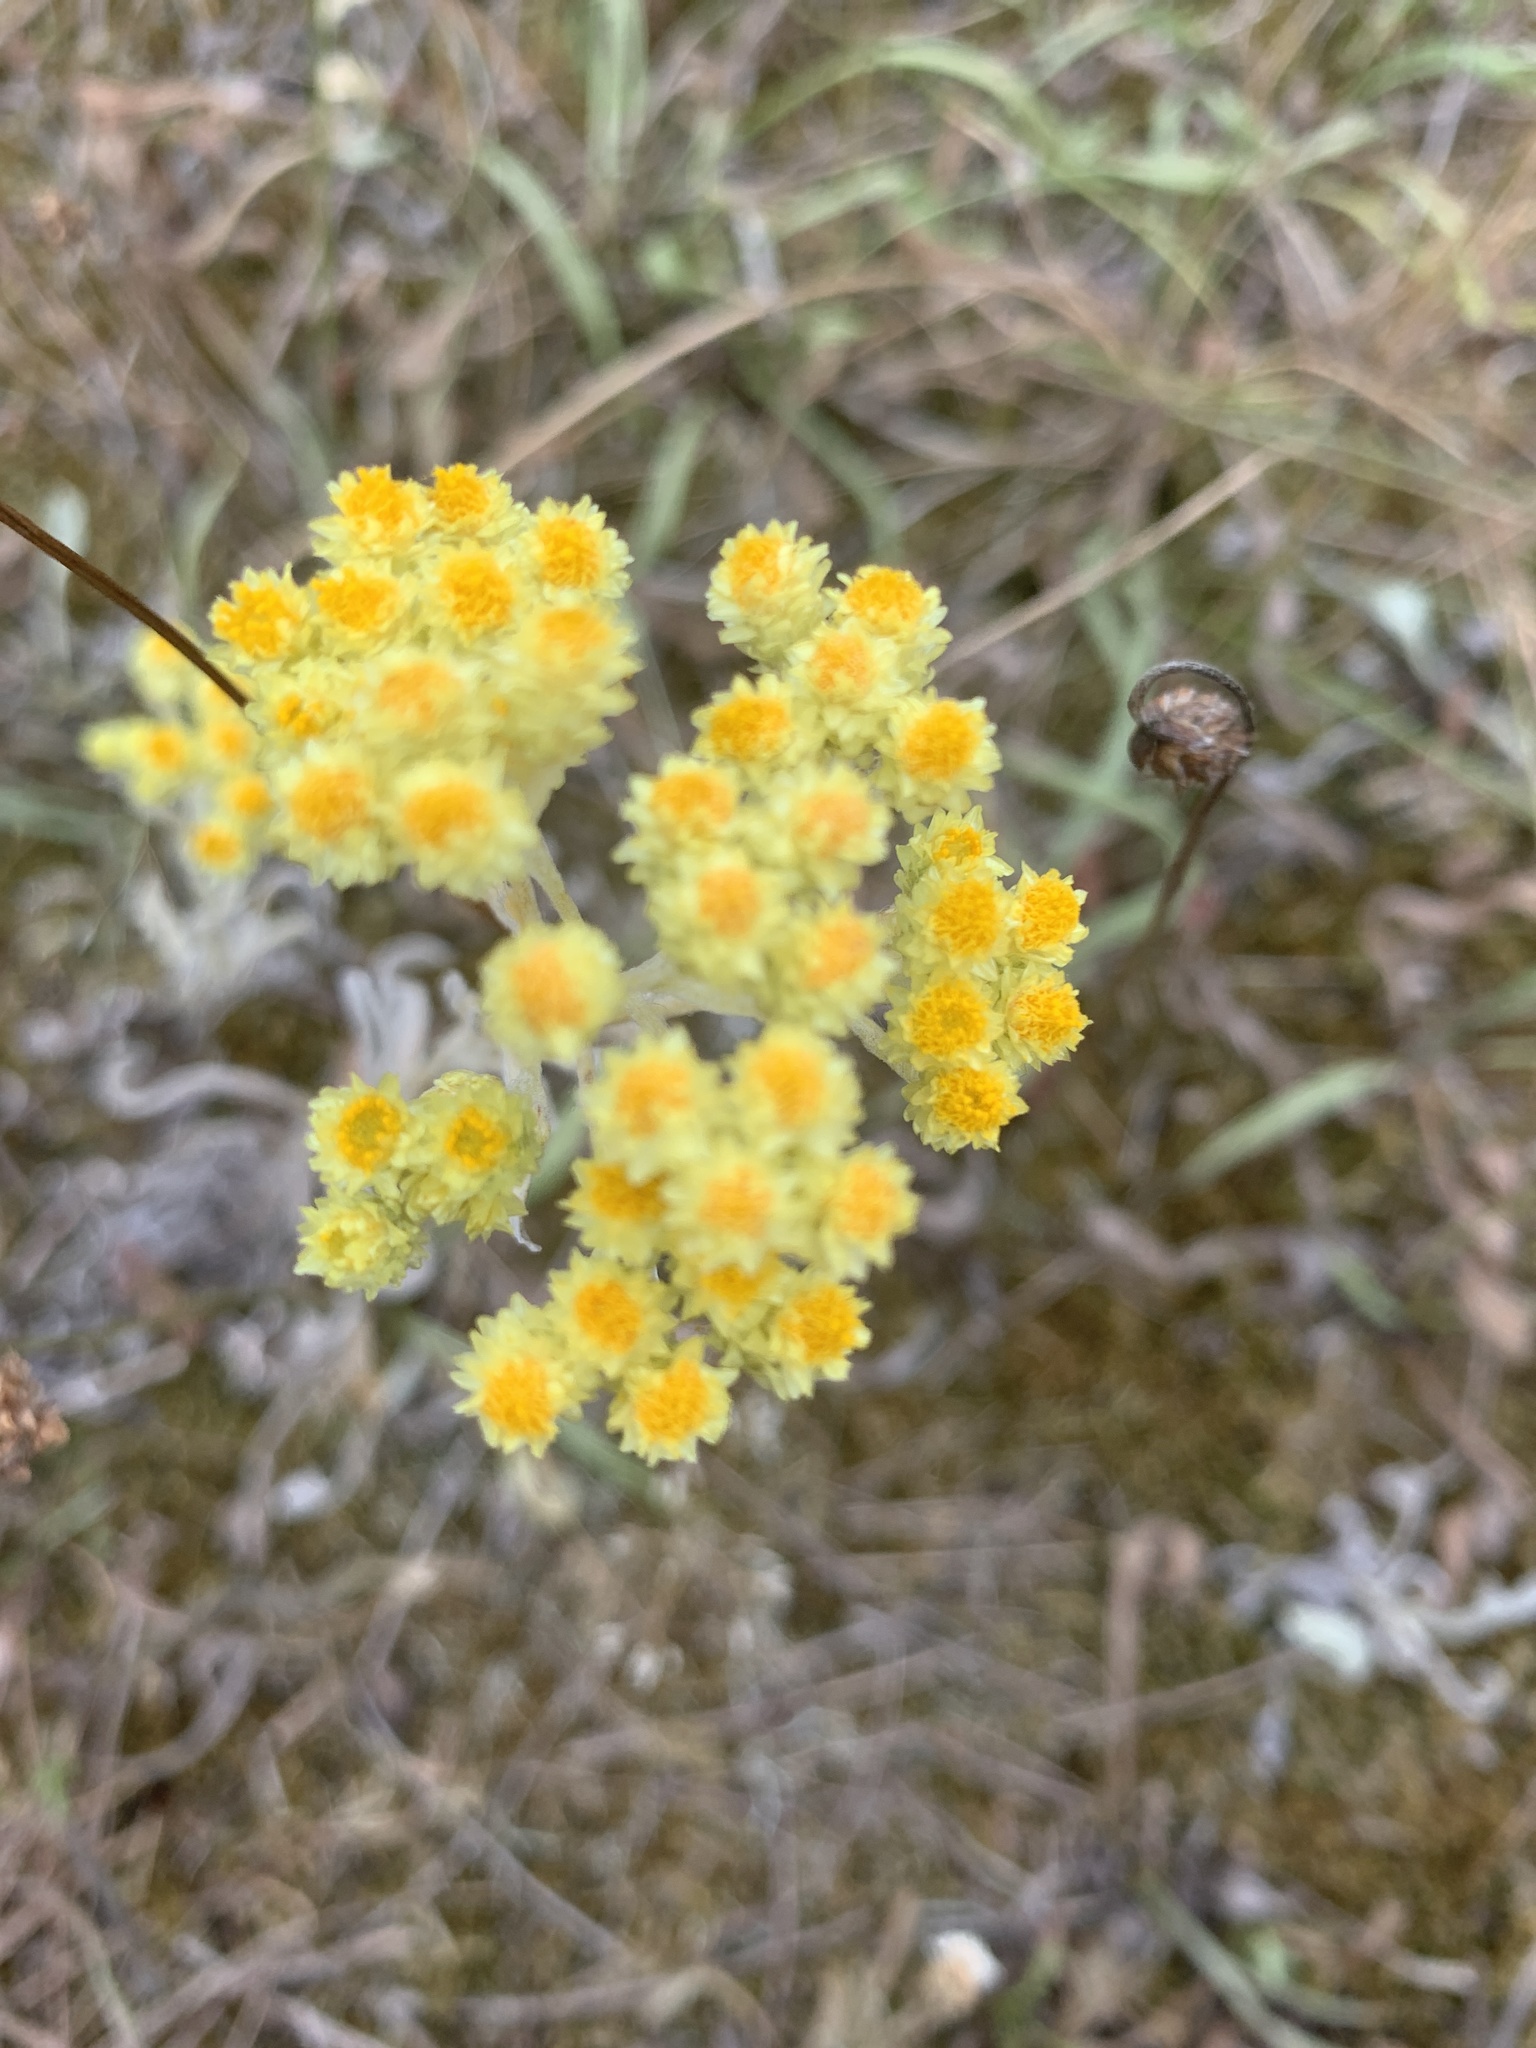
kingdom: Plantae
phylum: Tracheophyta
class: Magnoliopsida
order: Asterales
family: Asteraceae
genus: Helichrysum
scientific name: Helichrysum arenarium
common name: Strawflower
